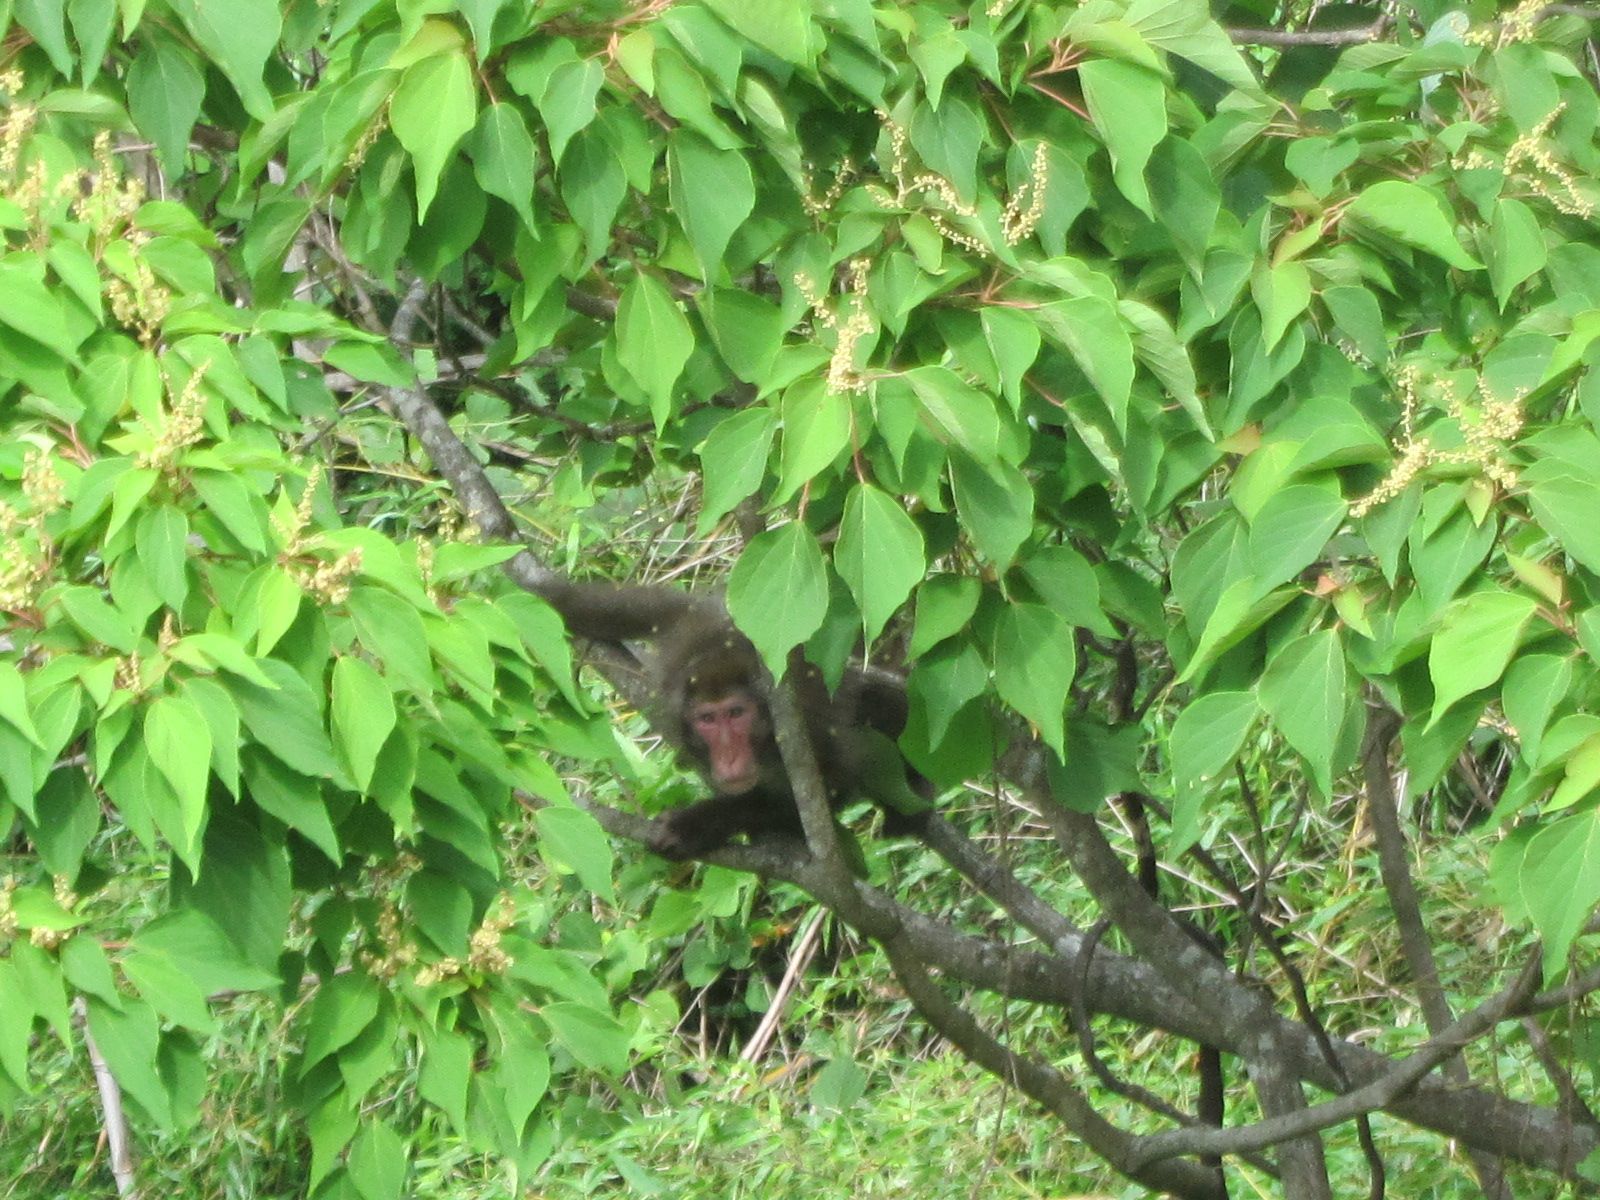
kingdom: Animalia
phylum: Chordata
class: Mammalia
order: Primates
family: Cercopithecidae
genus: Macaca
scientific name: Macaca fuscata
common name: Japanese macaque
